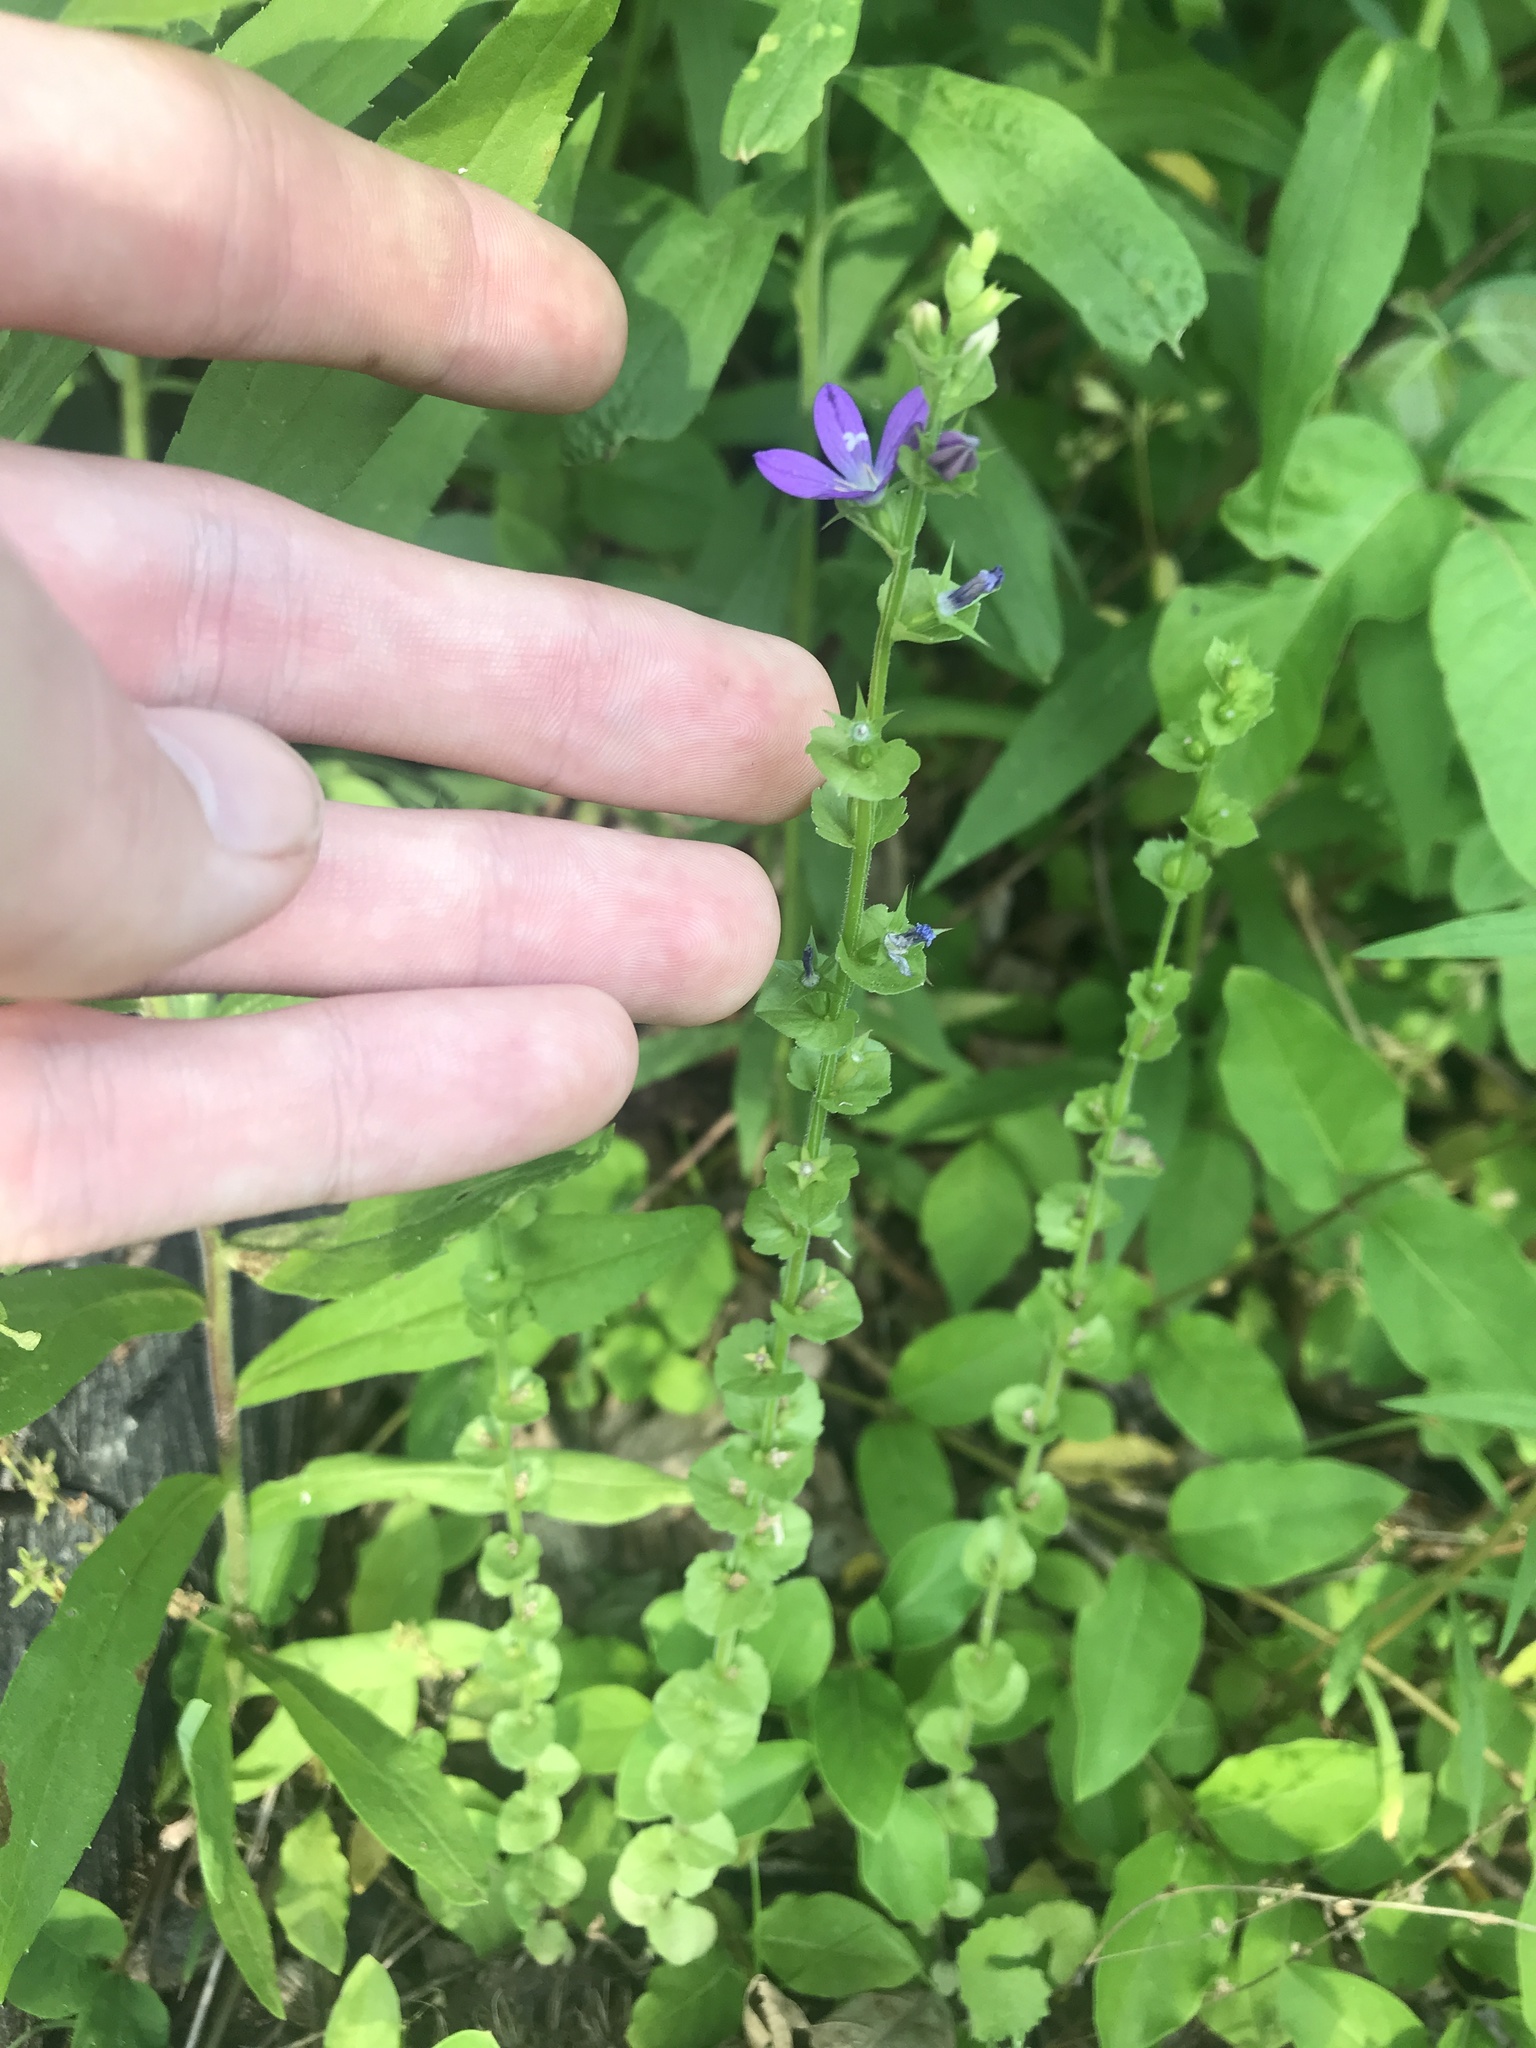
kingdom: Plantae
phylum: Tracheophyta
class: Magnoliopsida
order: Asterales
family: Campanulaceae
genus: Triodanis
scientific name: Triodanis perfoliata
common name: Clasping venus' looking-glass
